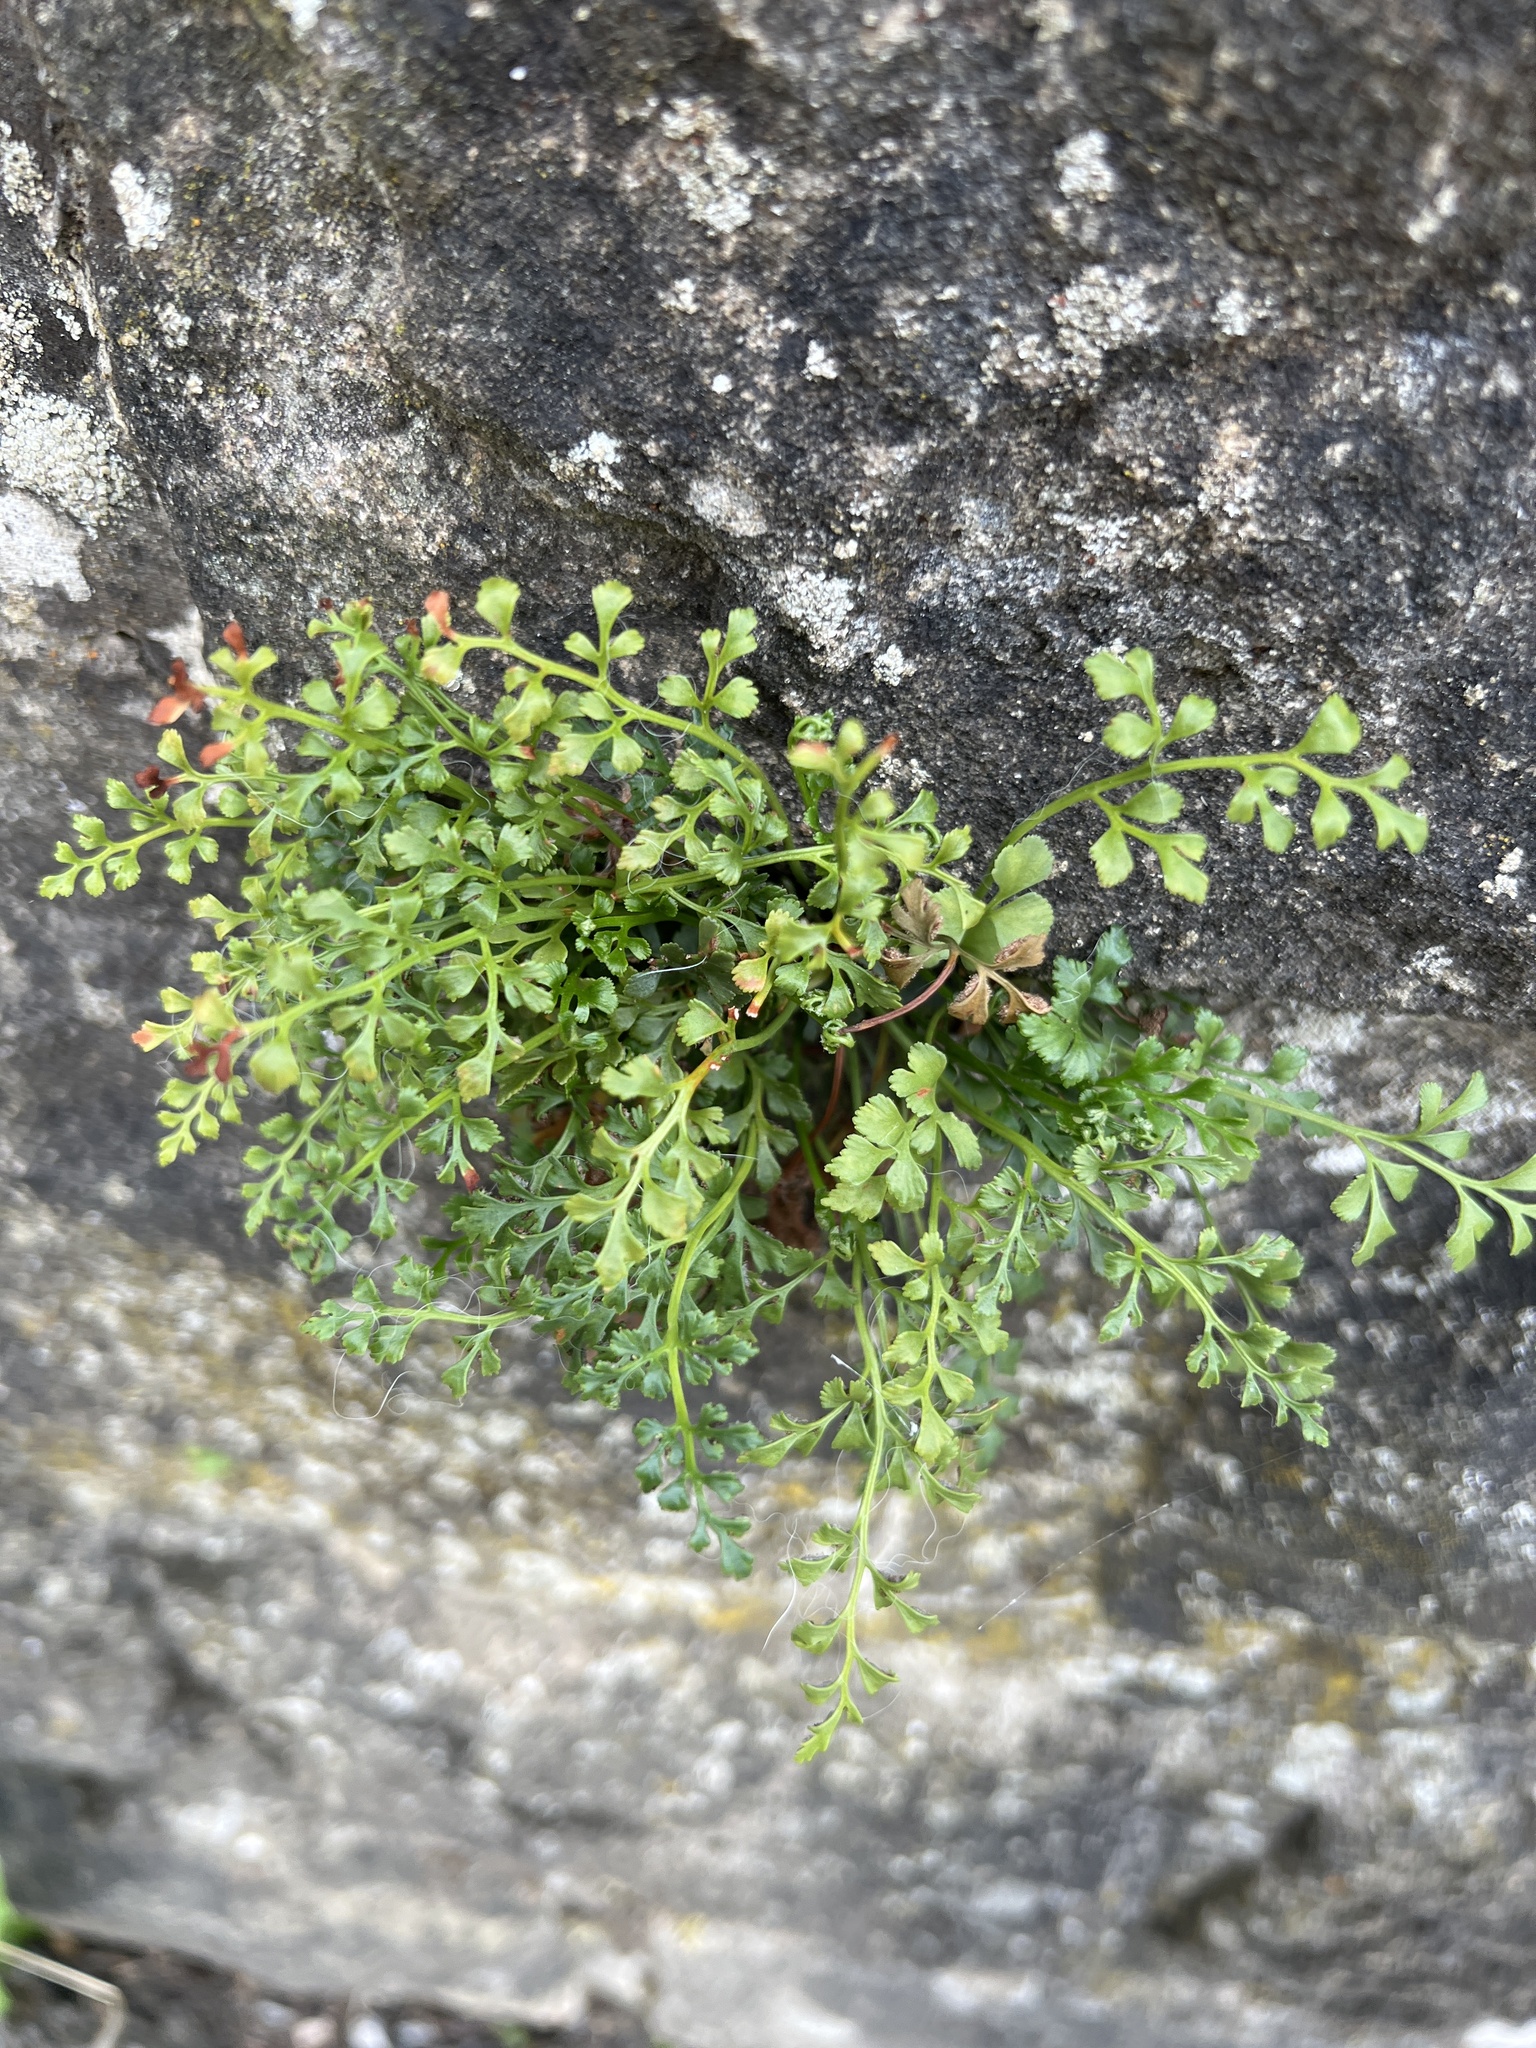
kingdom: Plantae
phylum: Tracheophyta
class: Polypodiopsida
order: Polypodiales
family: Aspleniaceae
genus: Asplenium
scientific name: Asplenium ruta-muraria
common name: Wall-rue
